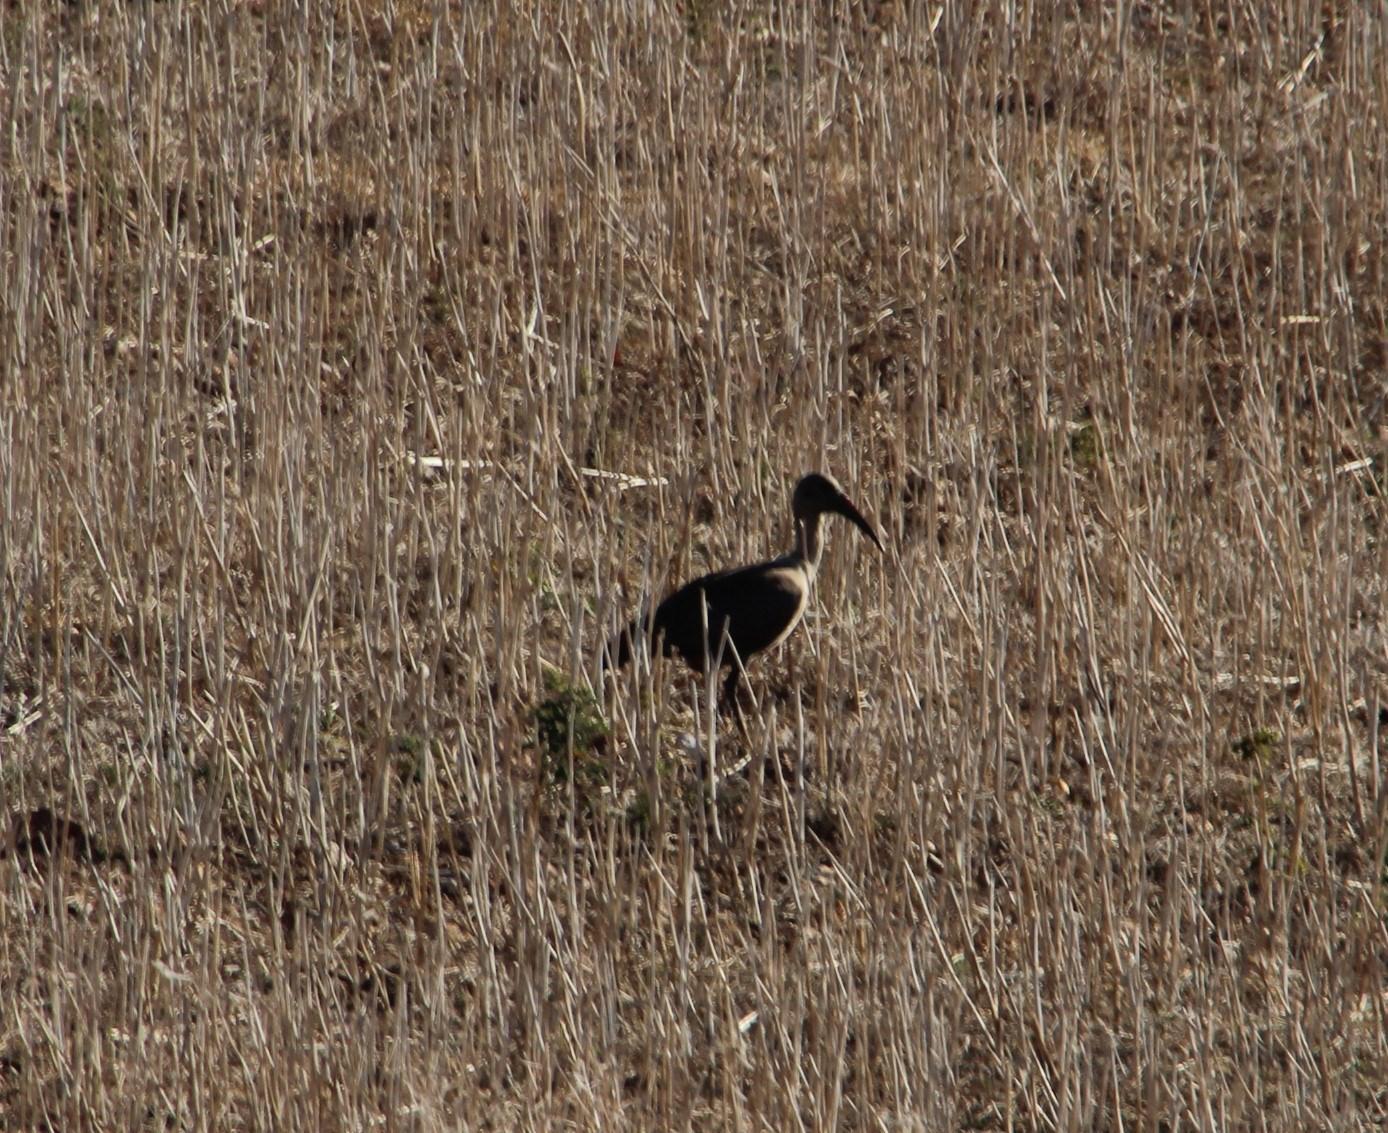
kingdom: Animalia
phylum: Chordata
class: Aves
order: Pelecaniformes
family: Threskiornithidae
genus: Bostrychia
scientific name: Bostrychia hagedash
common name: Hadada ibis
